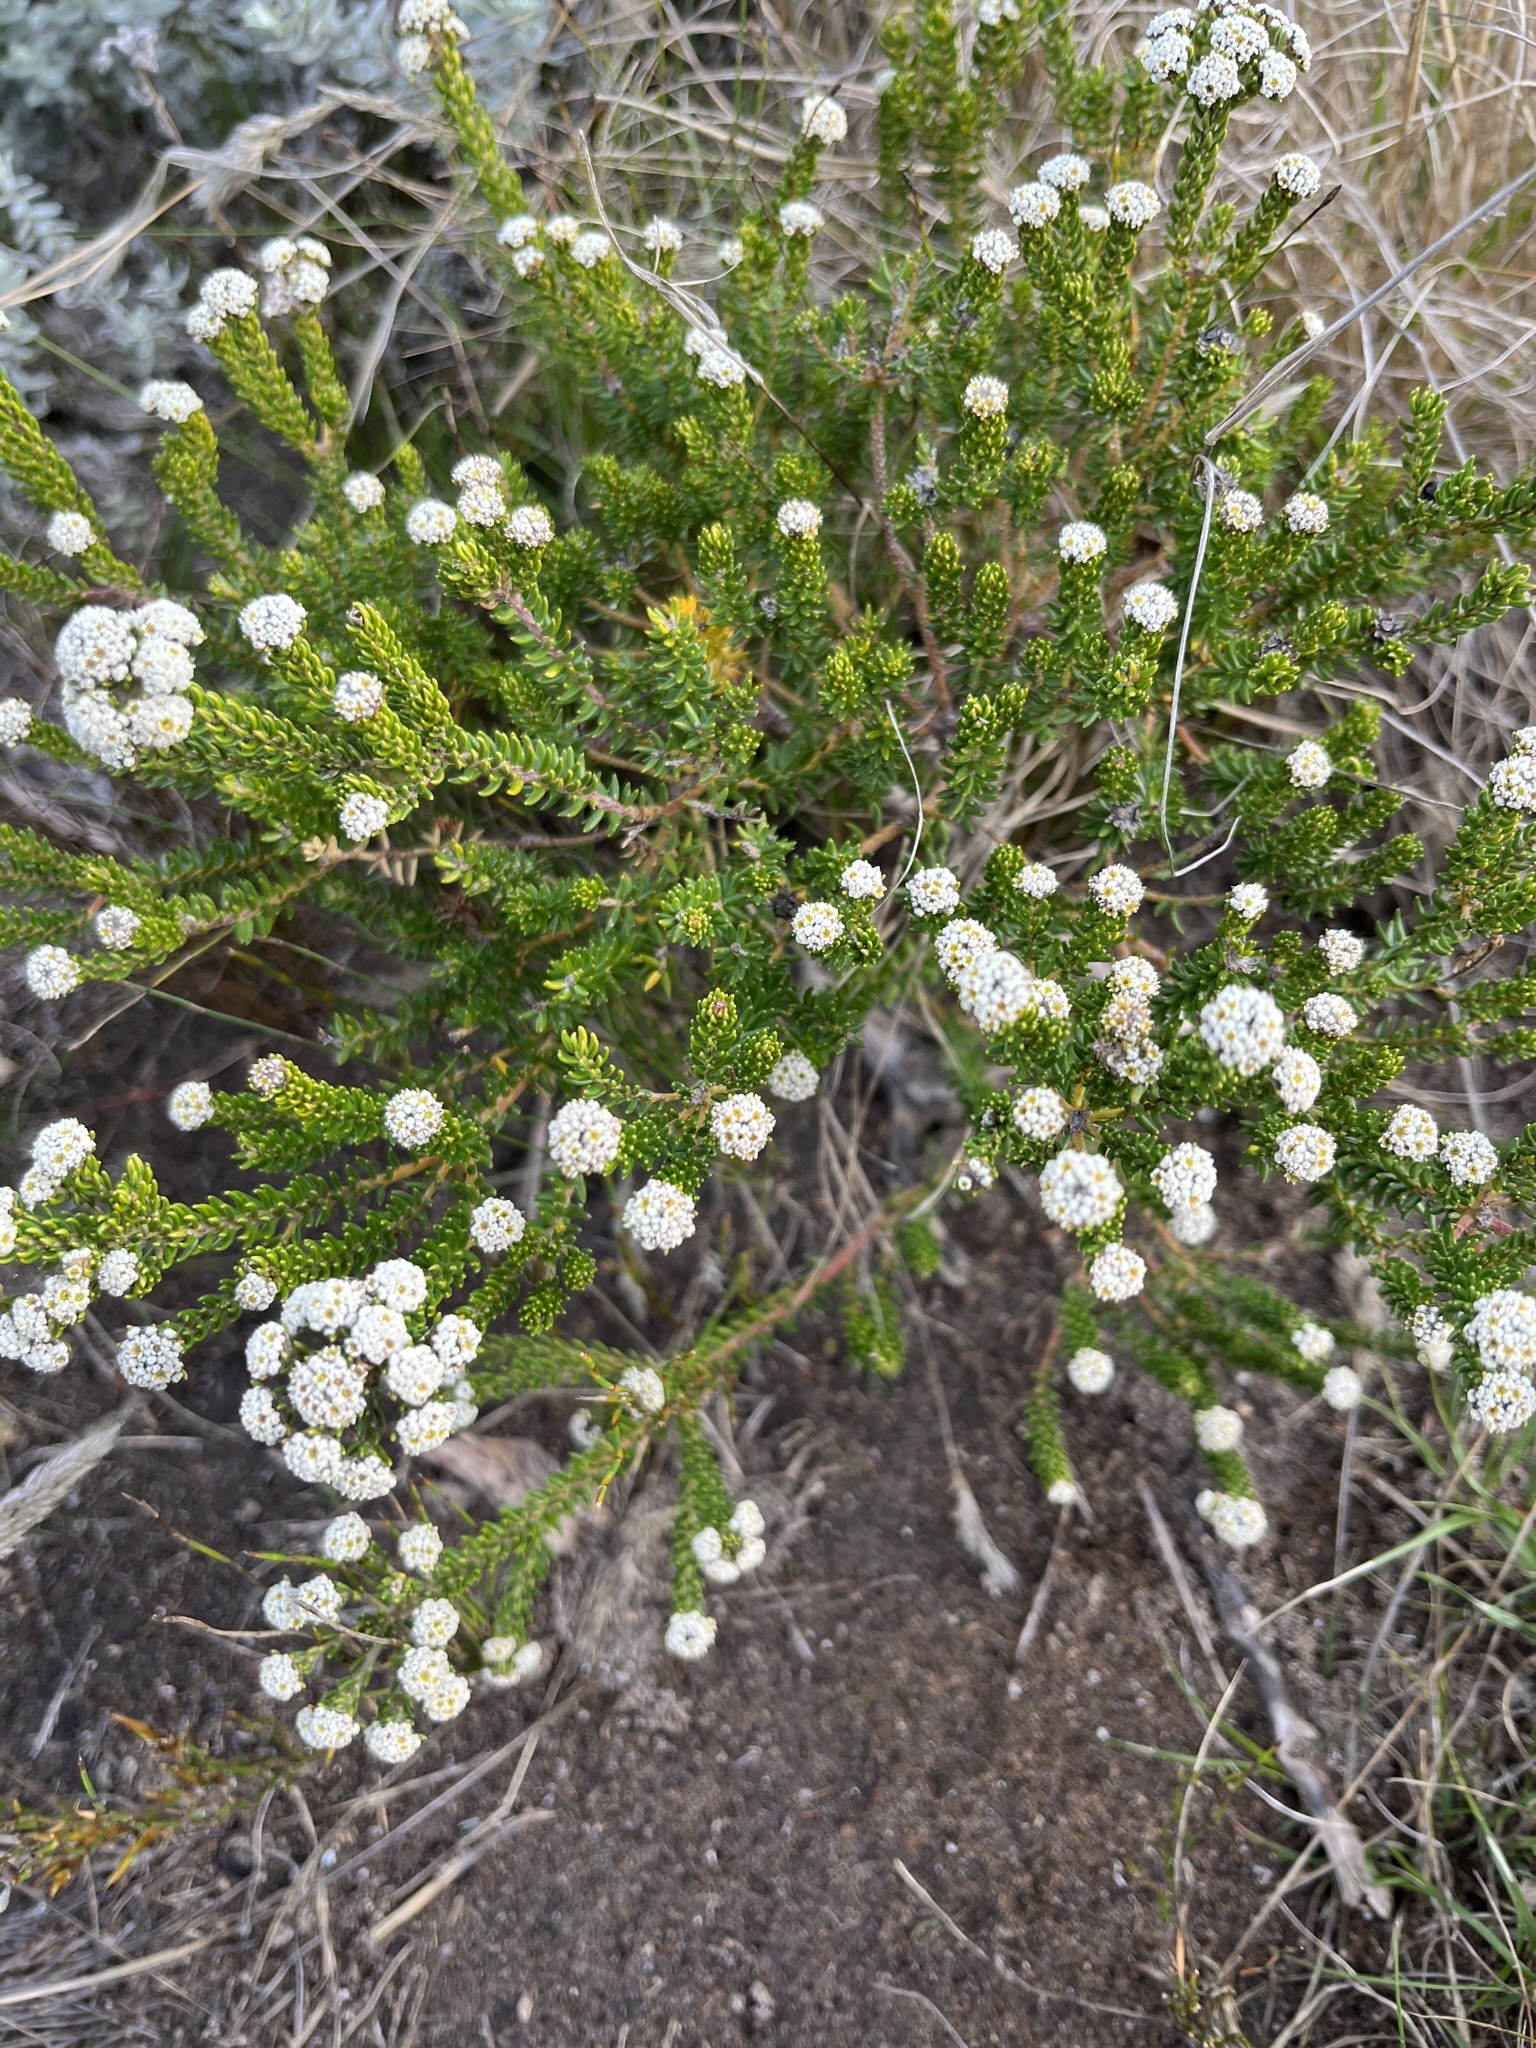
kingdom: Plantae
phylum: Tracheophyta
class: Magnoliopsida
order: Rosales
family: Rhamnaceae
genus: Phylica
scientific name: Phylica ericoides
